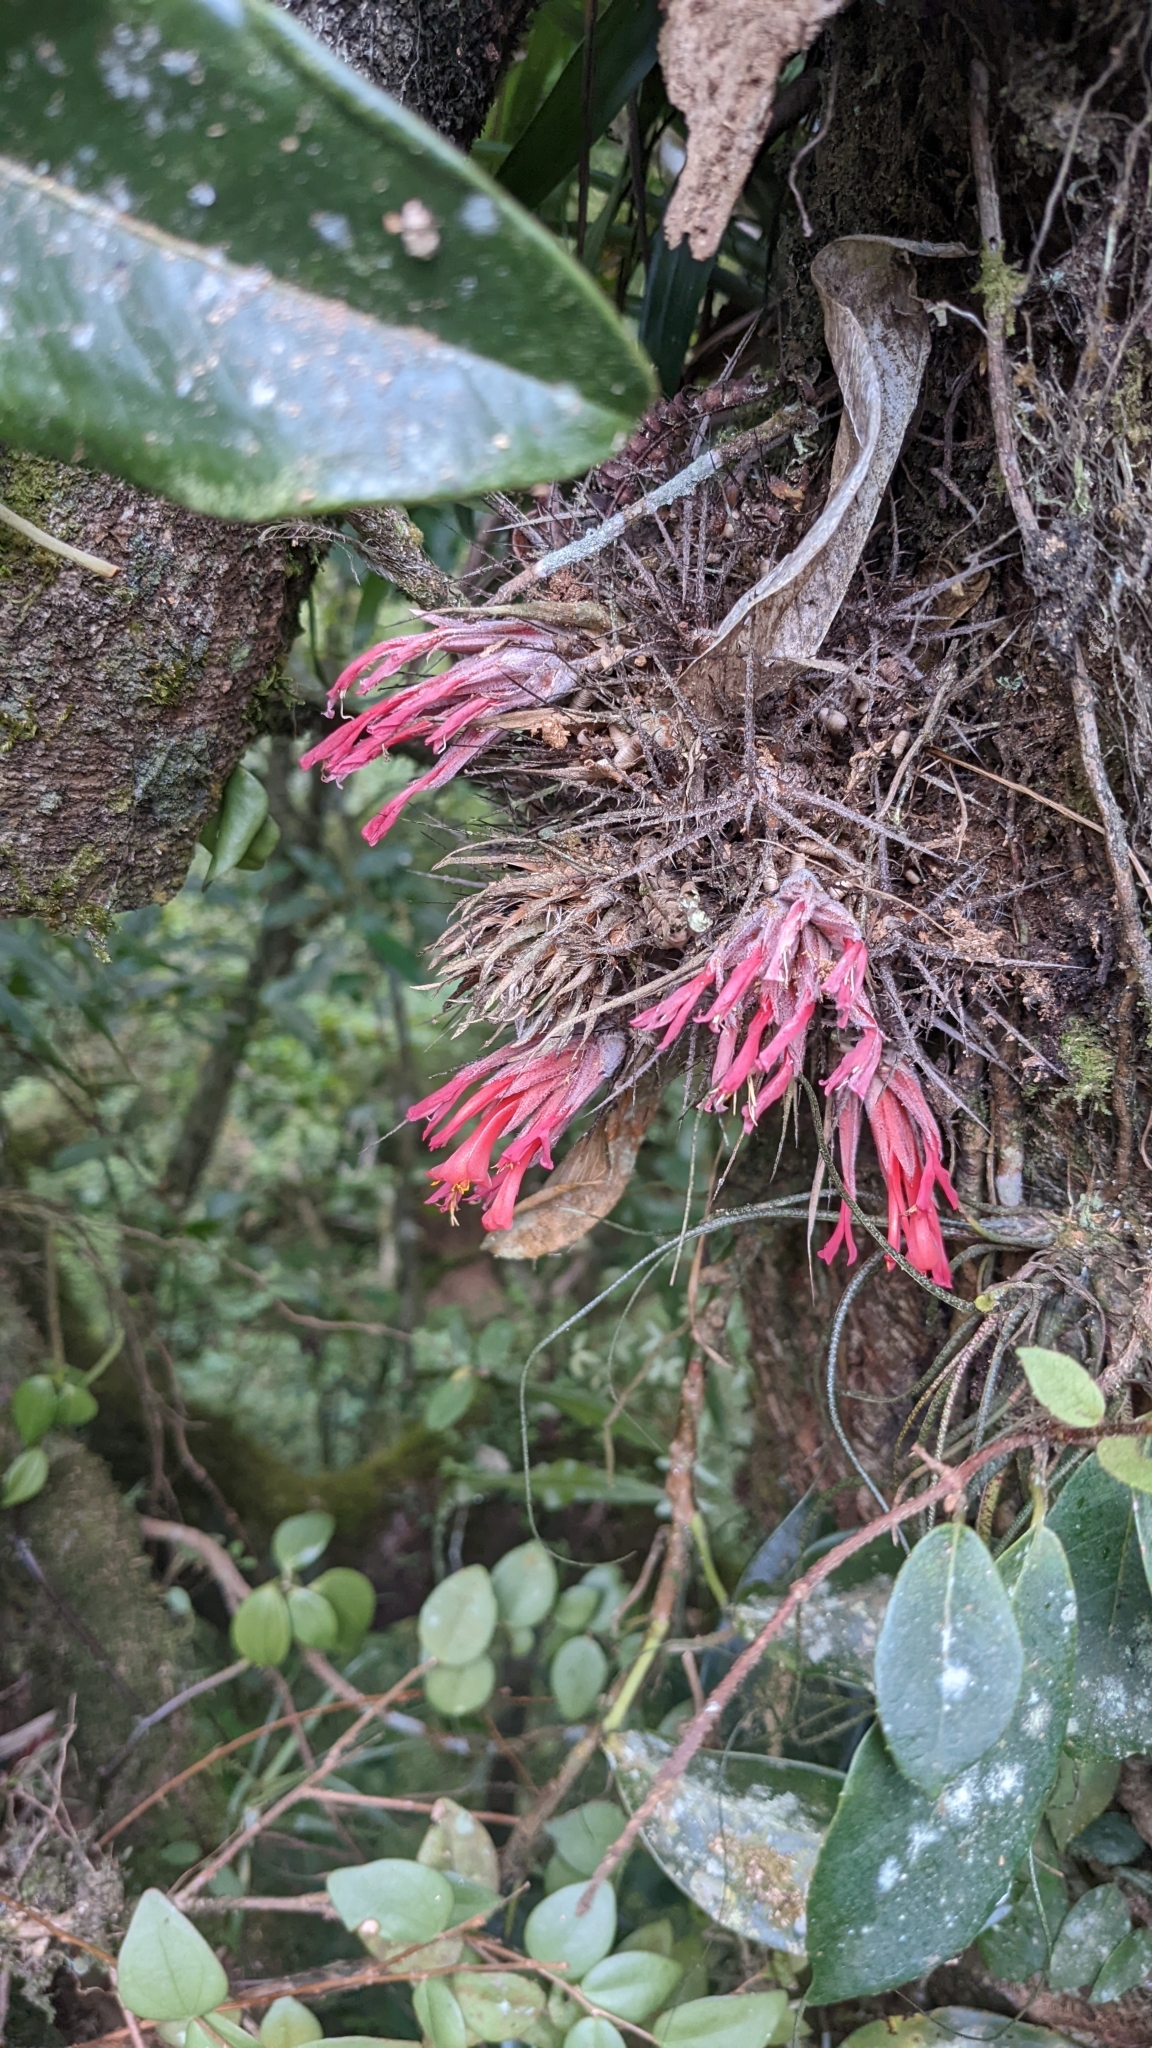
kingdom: Plantae
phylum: Tracheophyta
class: Liliopsida
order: Poales
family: Bromeliaceae
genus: Pitcairnia
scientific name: Pitcairnia heterophylla
